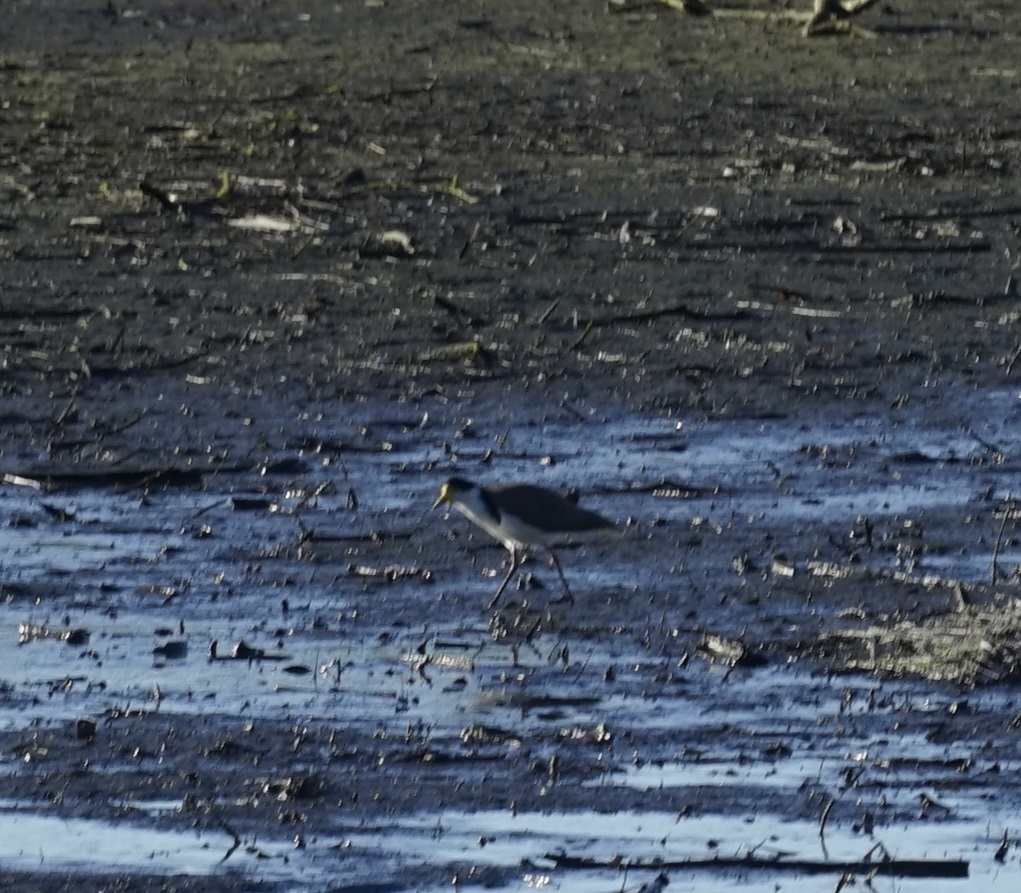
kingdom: Animalia
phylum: Chordata
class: Aves
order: Charadriiformes
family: Charadriidae
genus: Vanellus
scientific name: Vanellus miles
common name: Masked lapwing
